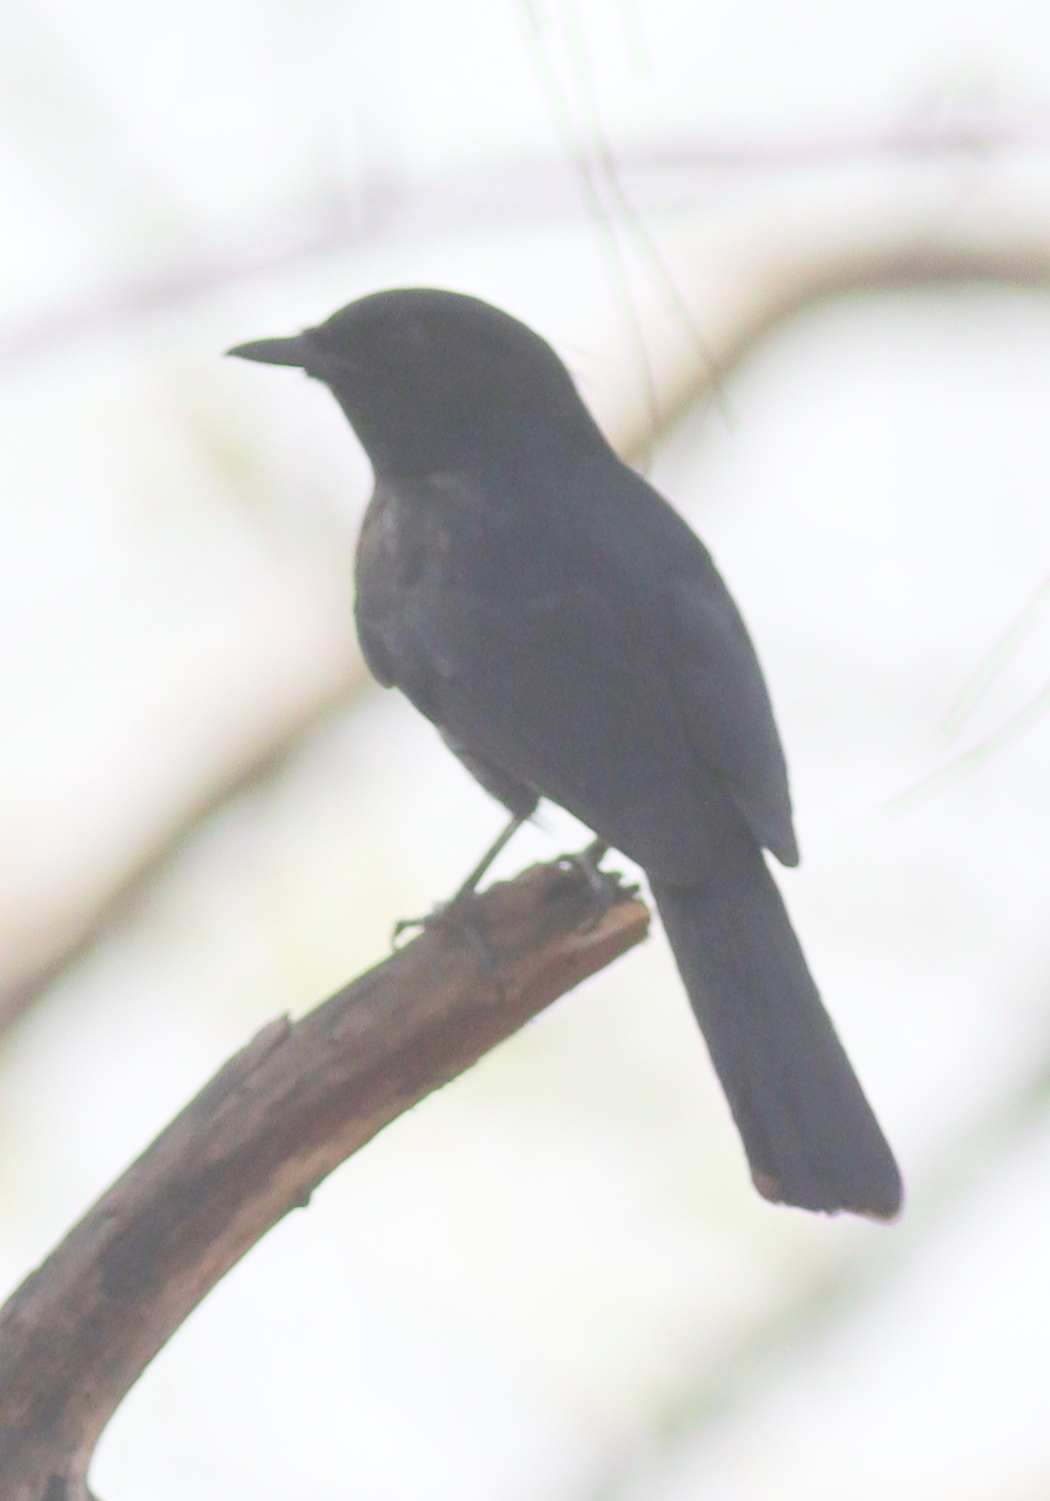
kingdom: Animalia
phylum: Chordata
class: Aves
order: Passeriformes
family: Muscicapidae
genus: Melaenornis
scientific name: Melaenornis edolioides
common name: Northern black flycatcher
